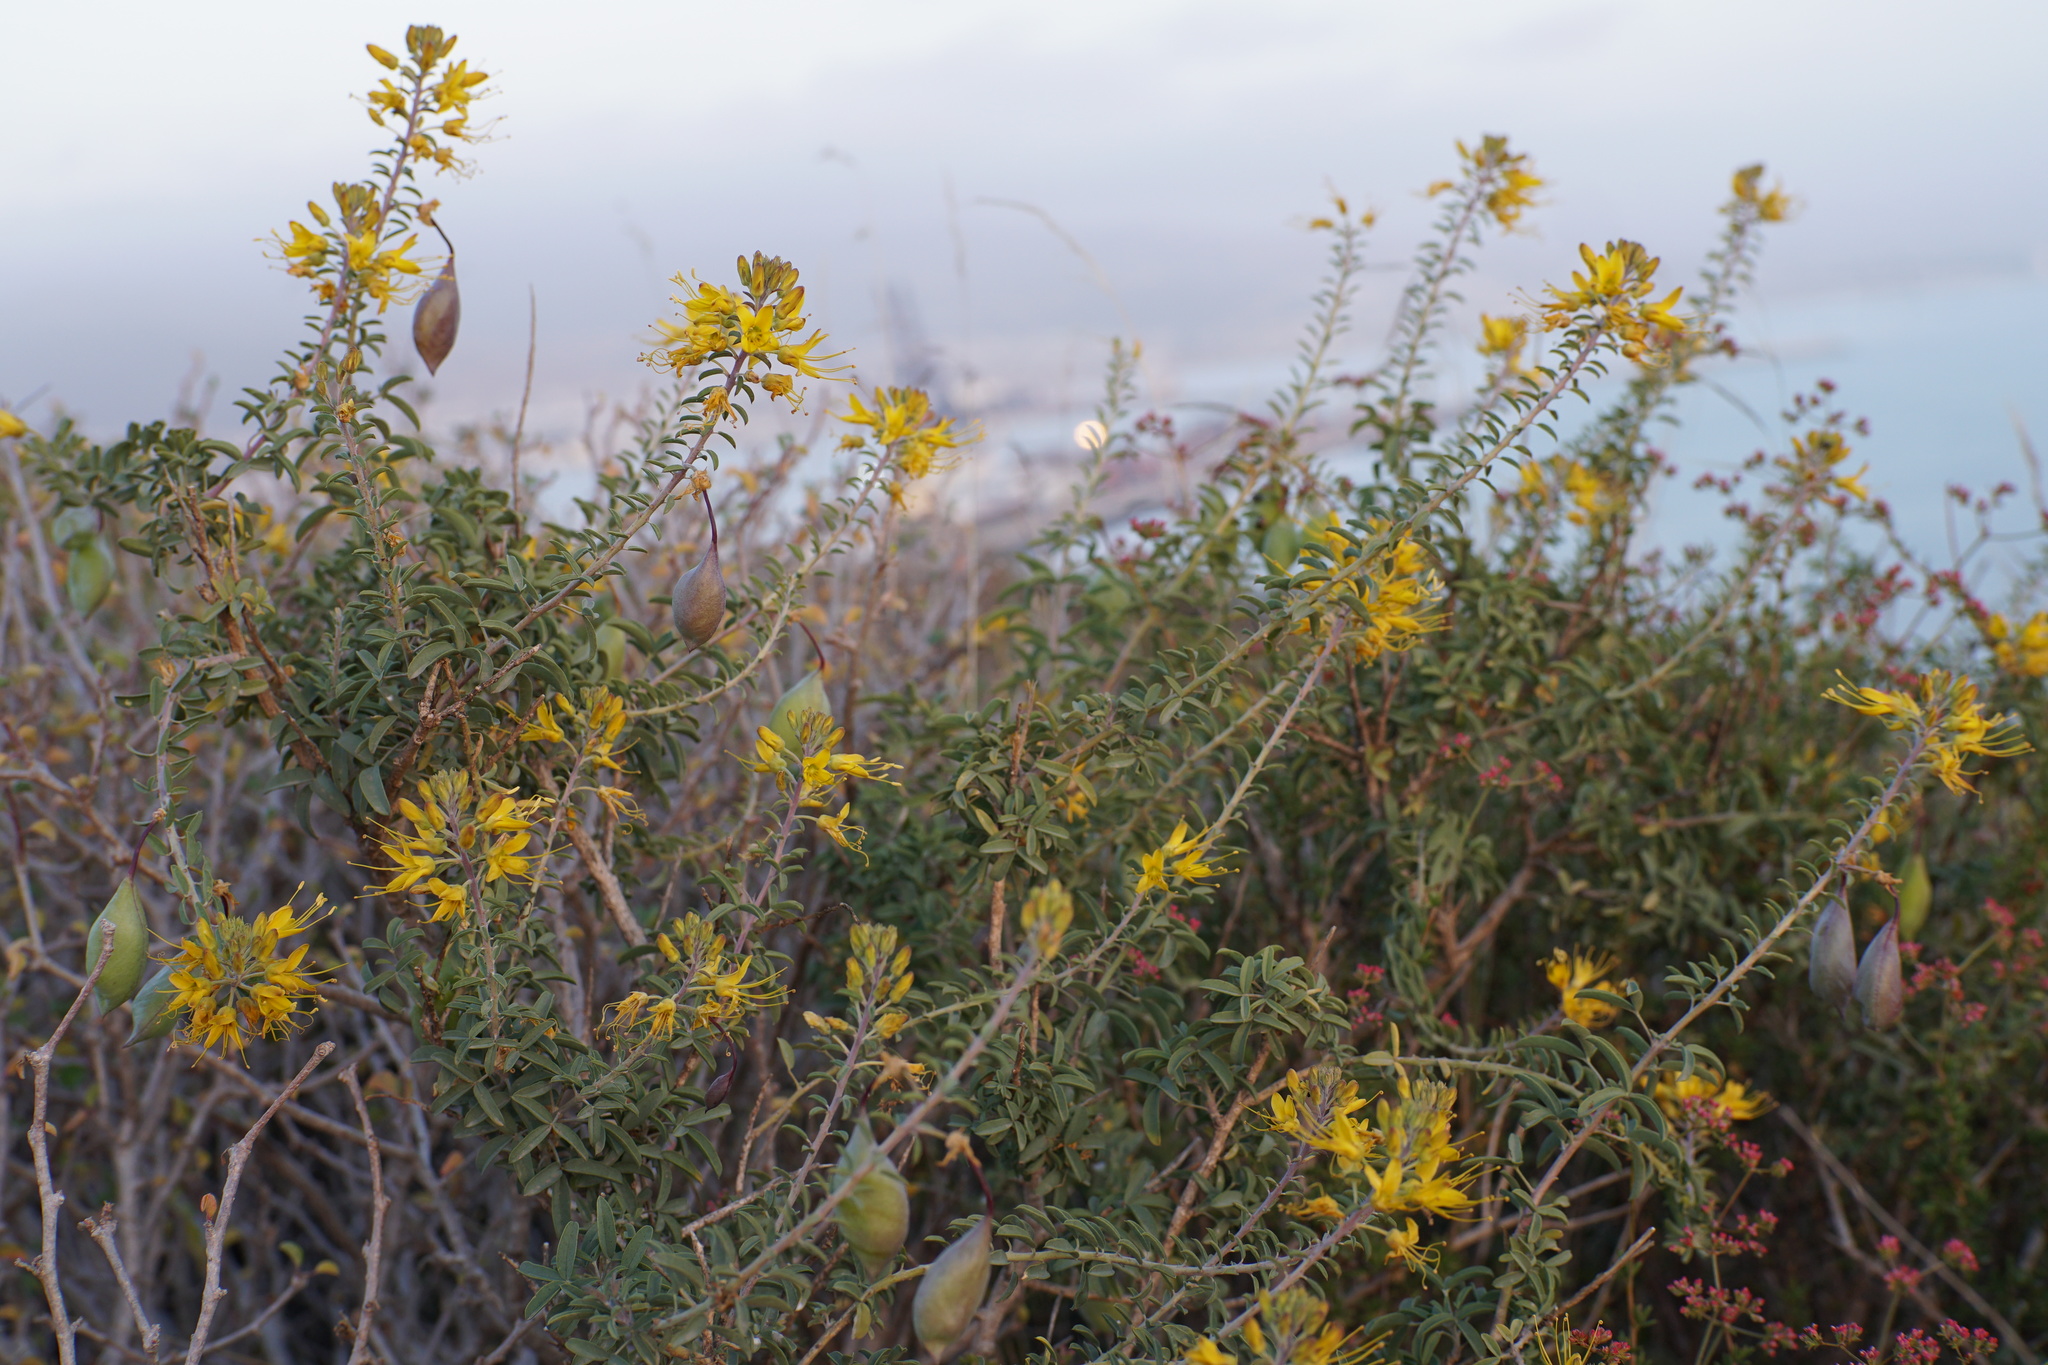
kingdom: Plantae
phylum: Tracheophyta
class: Magnoliopsida
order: Brassicales
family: Cleomaceae
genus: Cleomella
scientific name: Cleomella arborea
